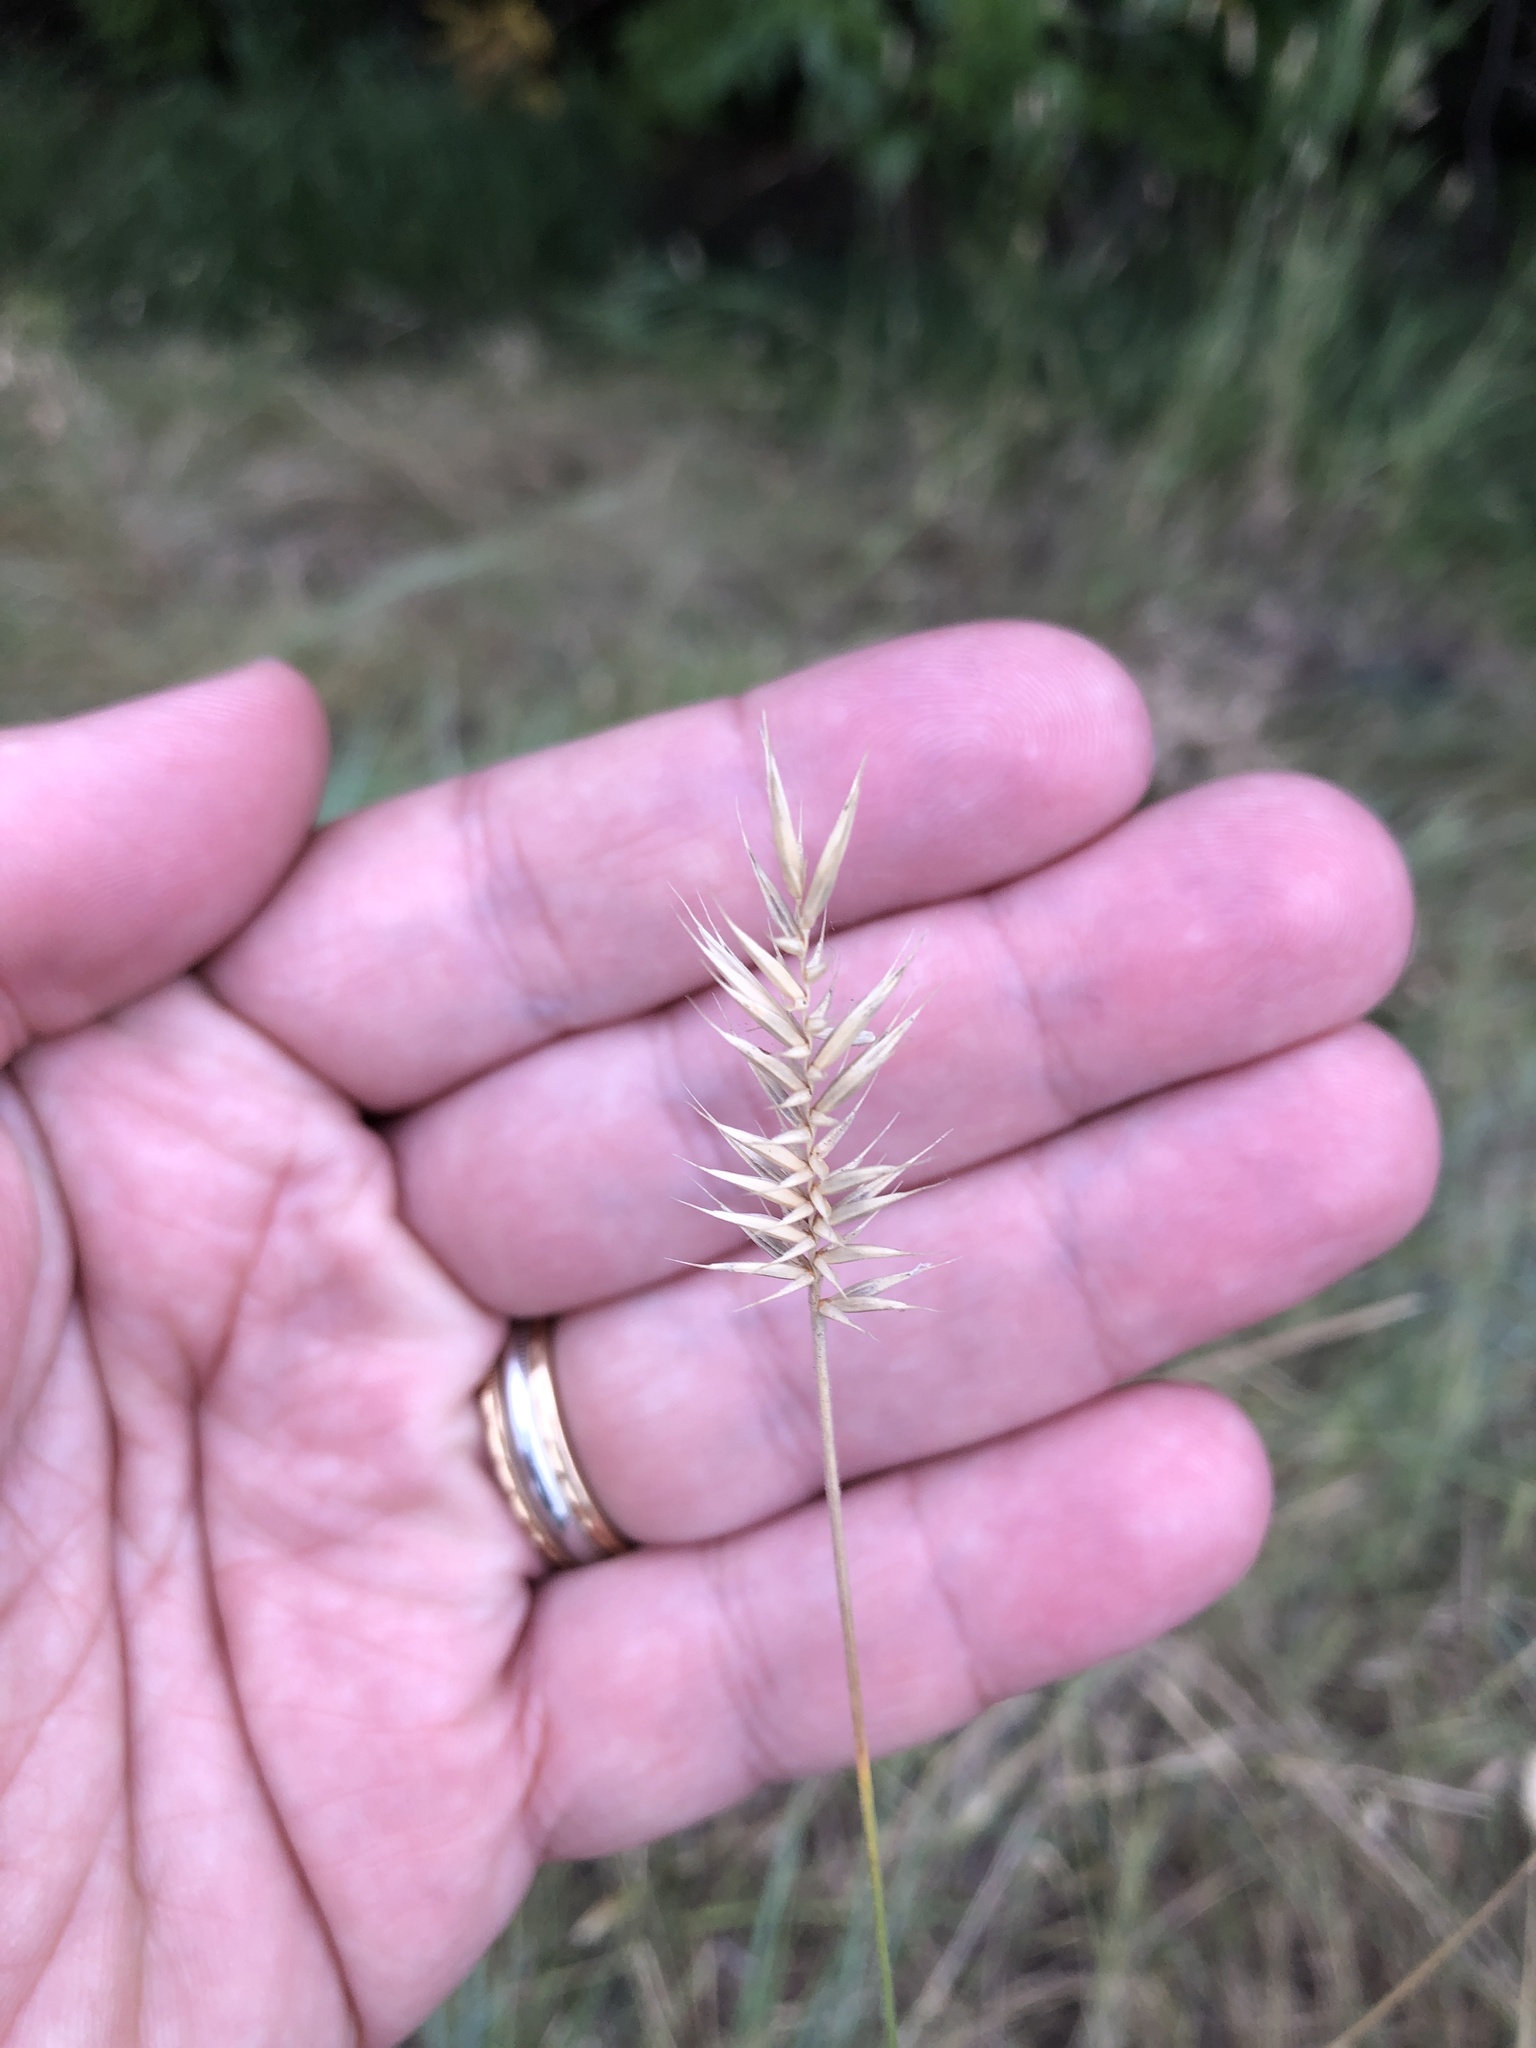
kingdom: Plantae
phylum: Tracheophyta
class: Liliopsida
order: Poales
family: Poaceae
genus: Agropyron
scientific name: Agropyron cristatum
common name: Crested wheatgrass
